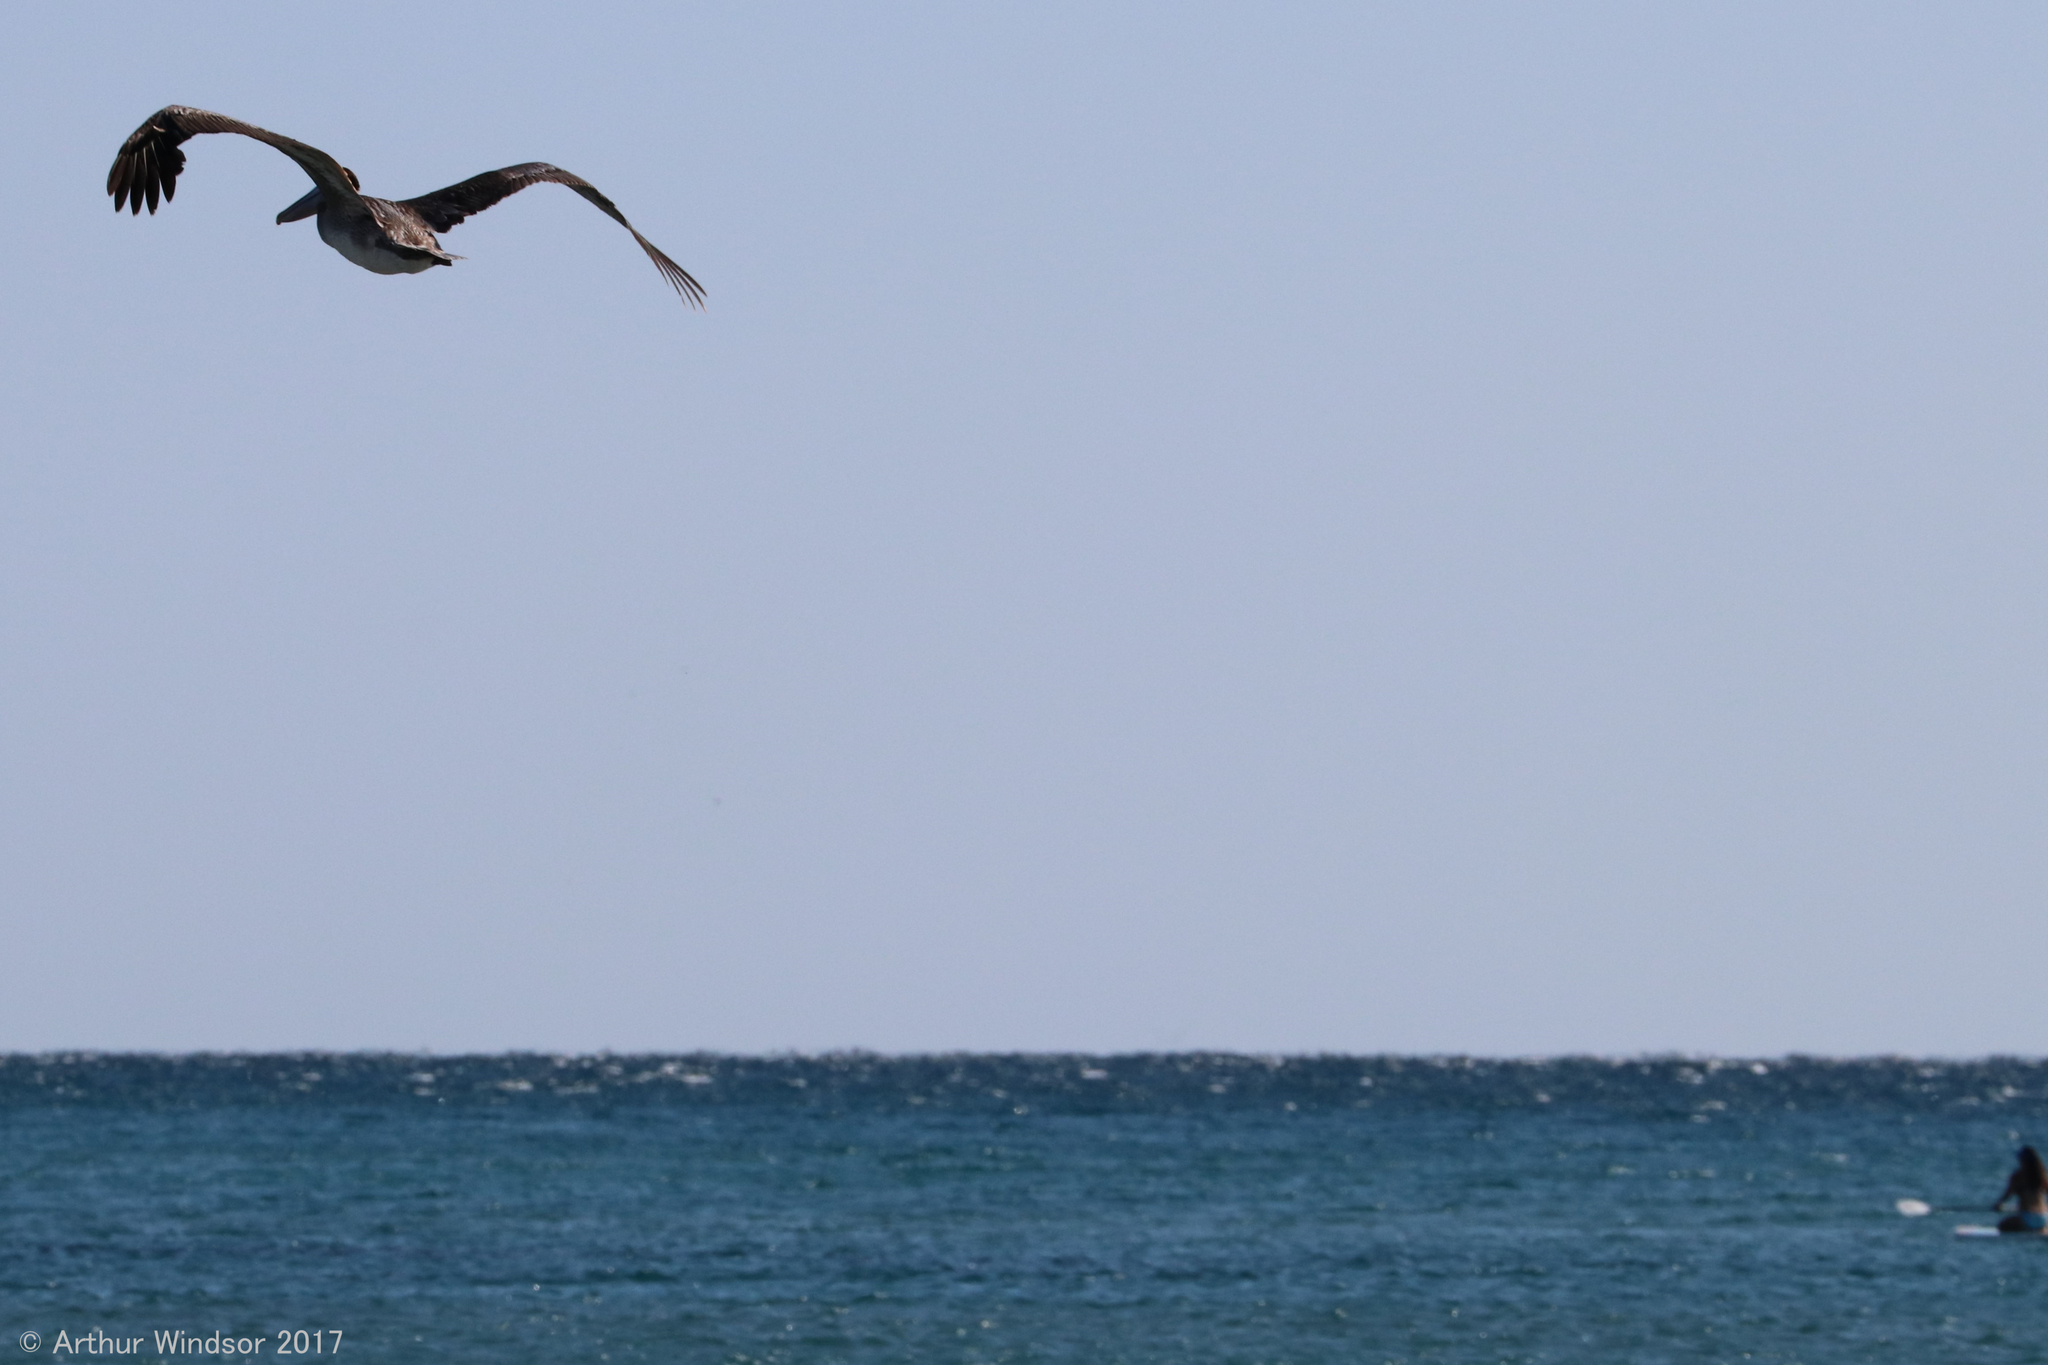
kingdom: Animalia
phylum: Chordata
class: Aves
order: Pelecaniformes
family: Pelecanidae
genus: Pelecanus
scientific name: Pelecanus occidentalis
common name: Brown pelican
